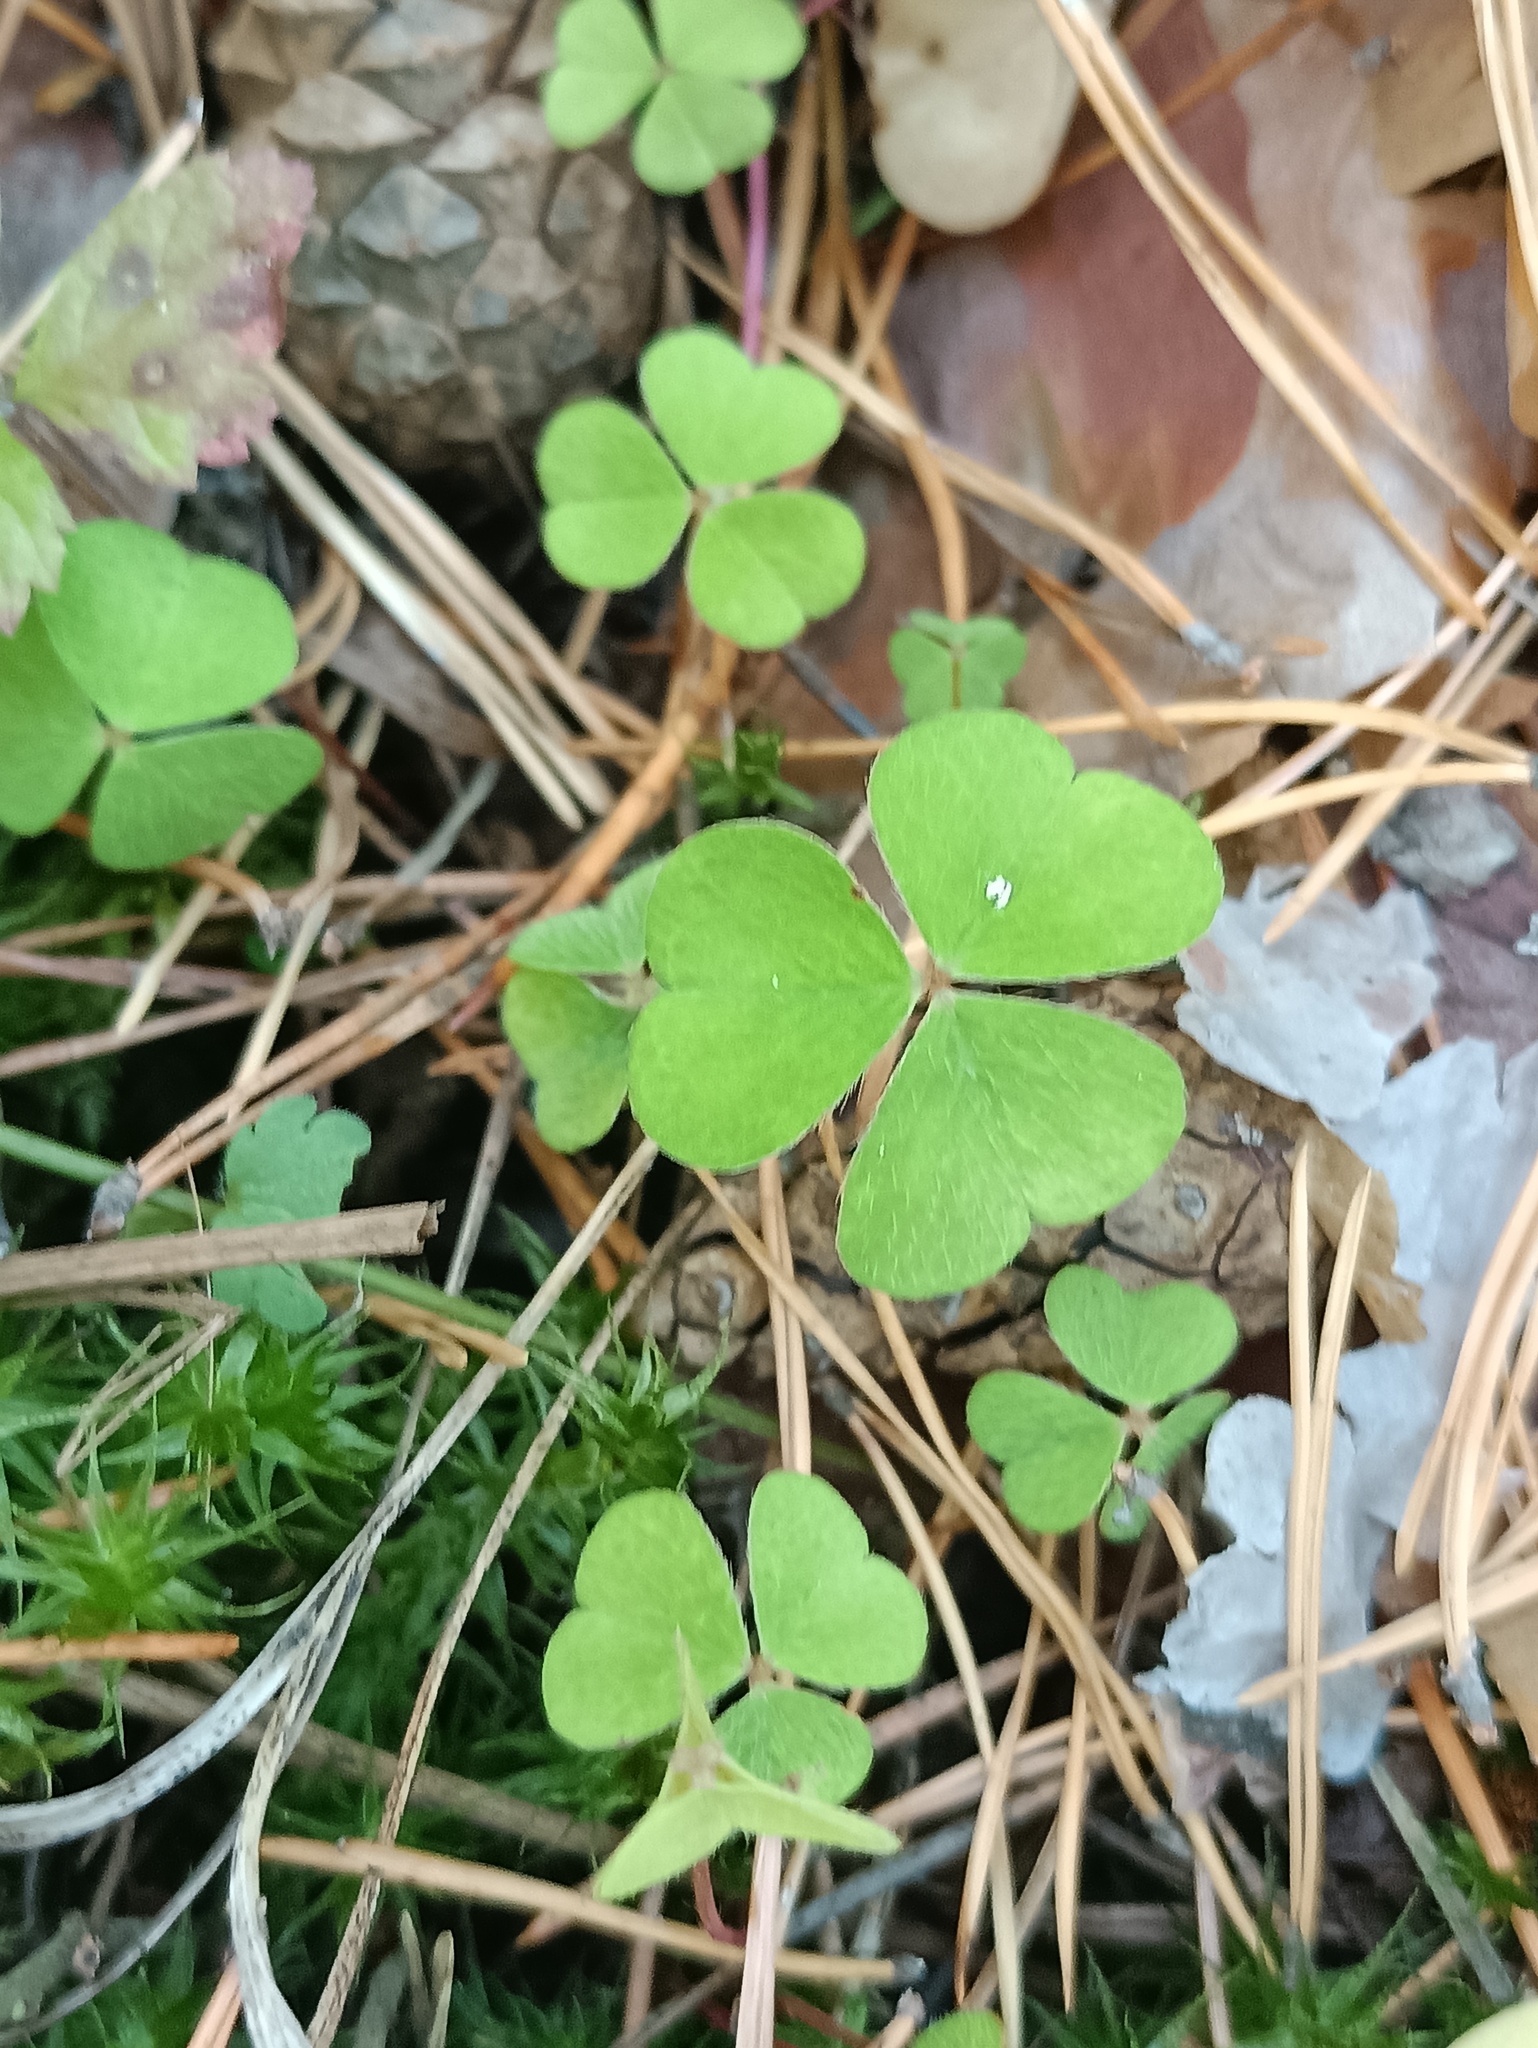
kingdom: Plantae
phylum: Tracheophyta
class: Magnoliopsida
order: Oxalidales
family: Oxalidaceae
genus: Oxalis
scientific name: Oxalis acetosella
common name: Wood-sorrel
